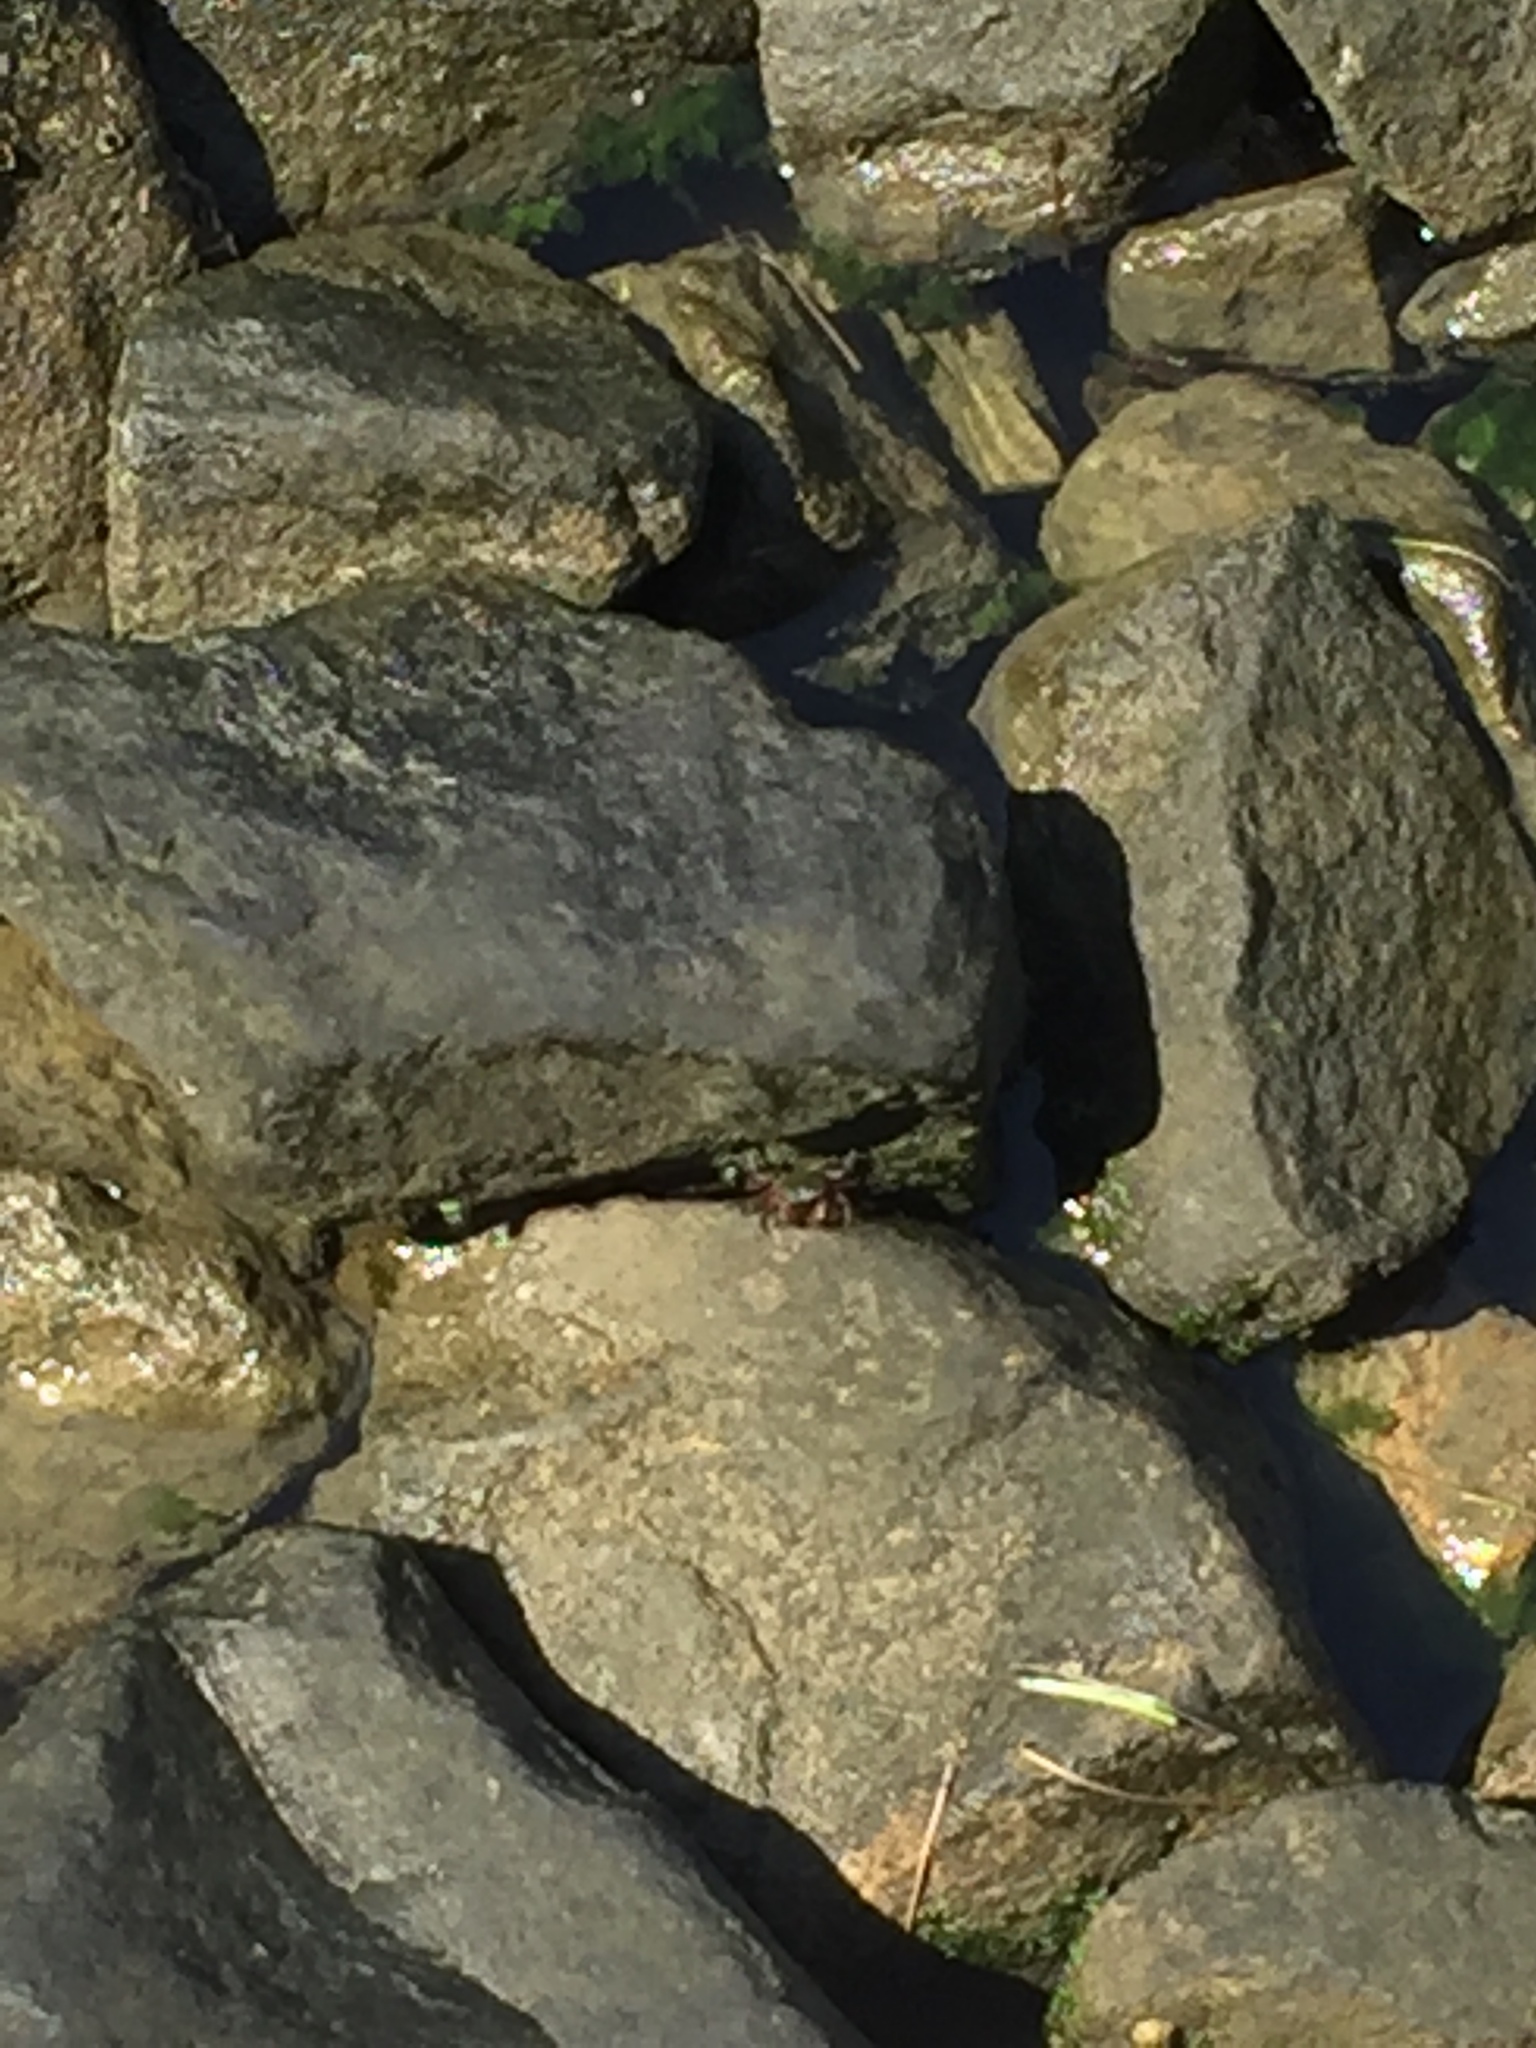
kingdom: Animalia
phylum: Arthropoda
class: Malacostraca
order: Decapoda
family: Grapsidae
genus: Pachygrapsus
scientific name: Pachygrapsus crassipes
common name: Striped shore crab
